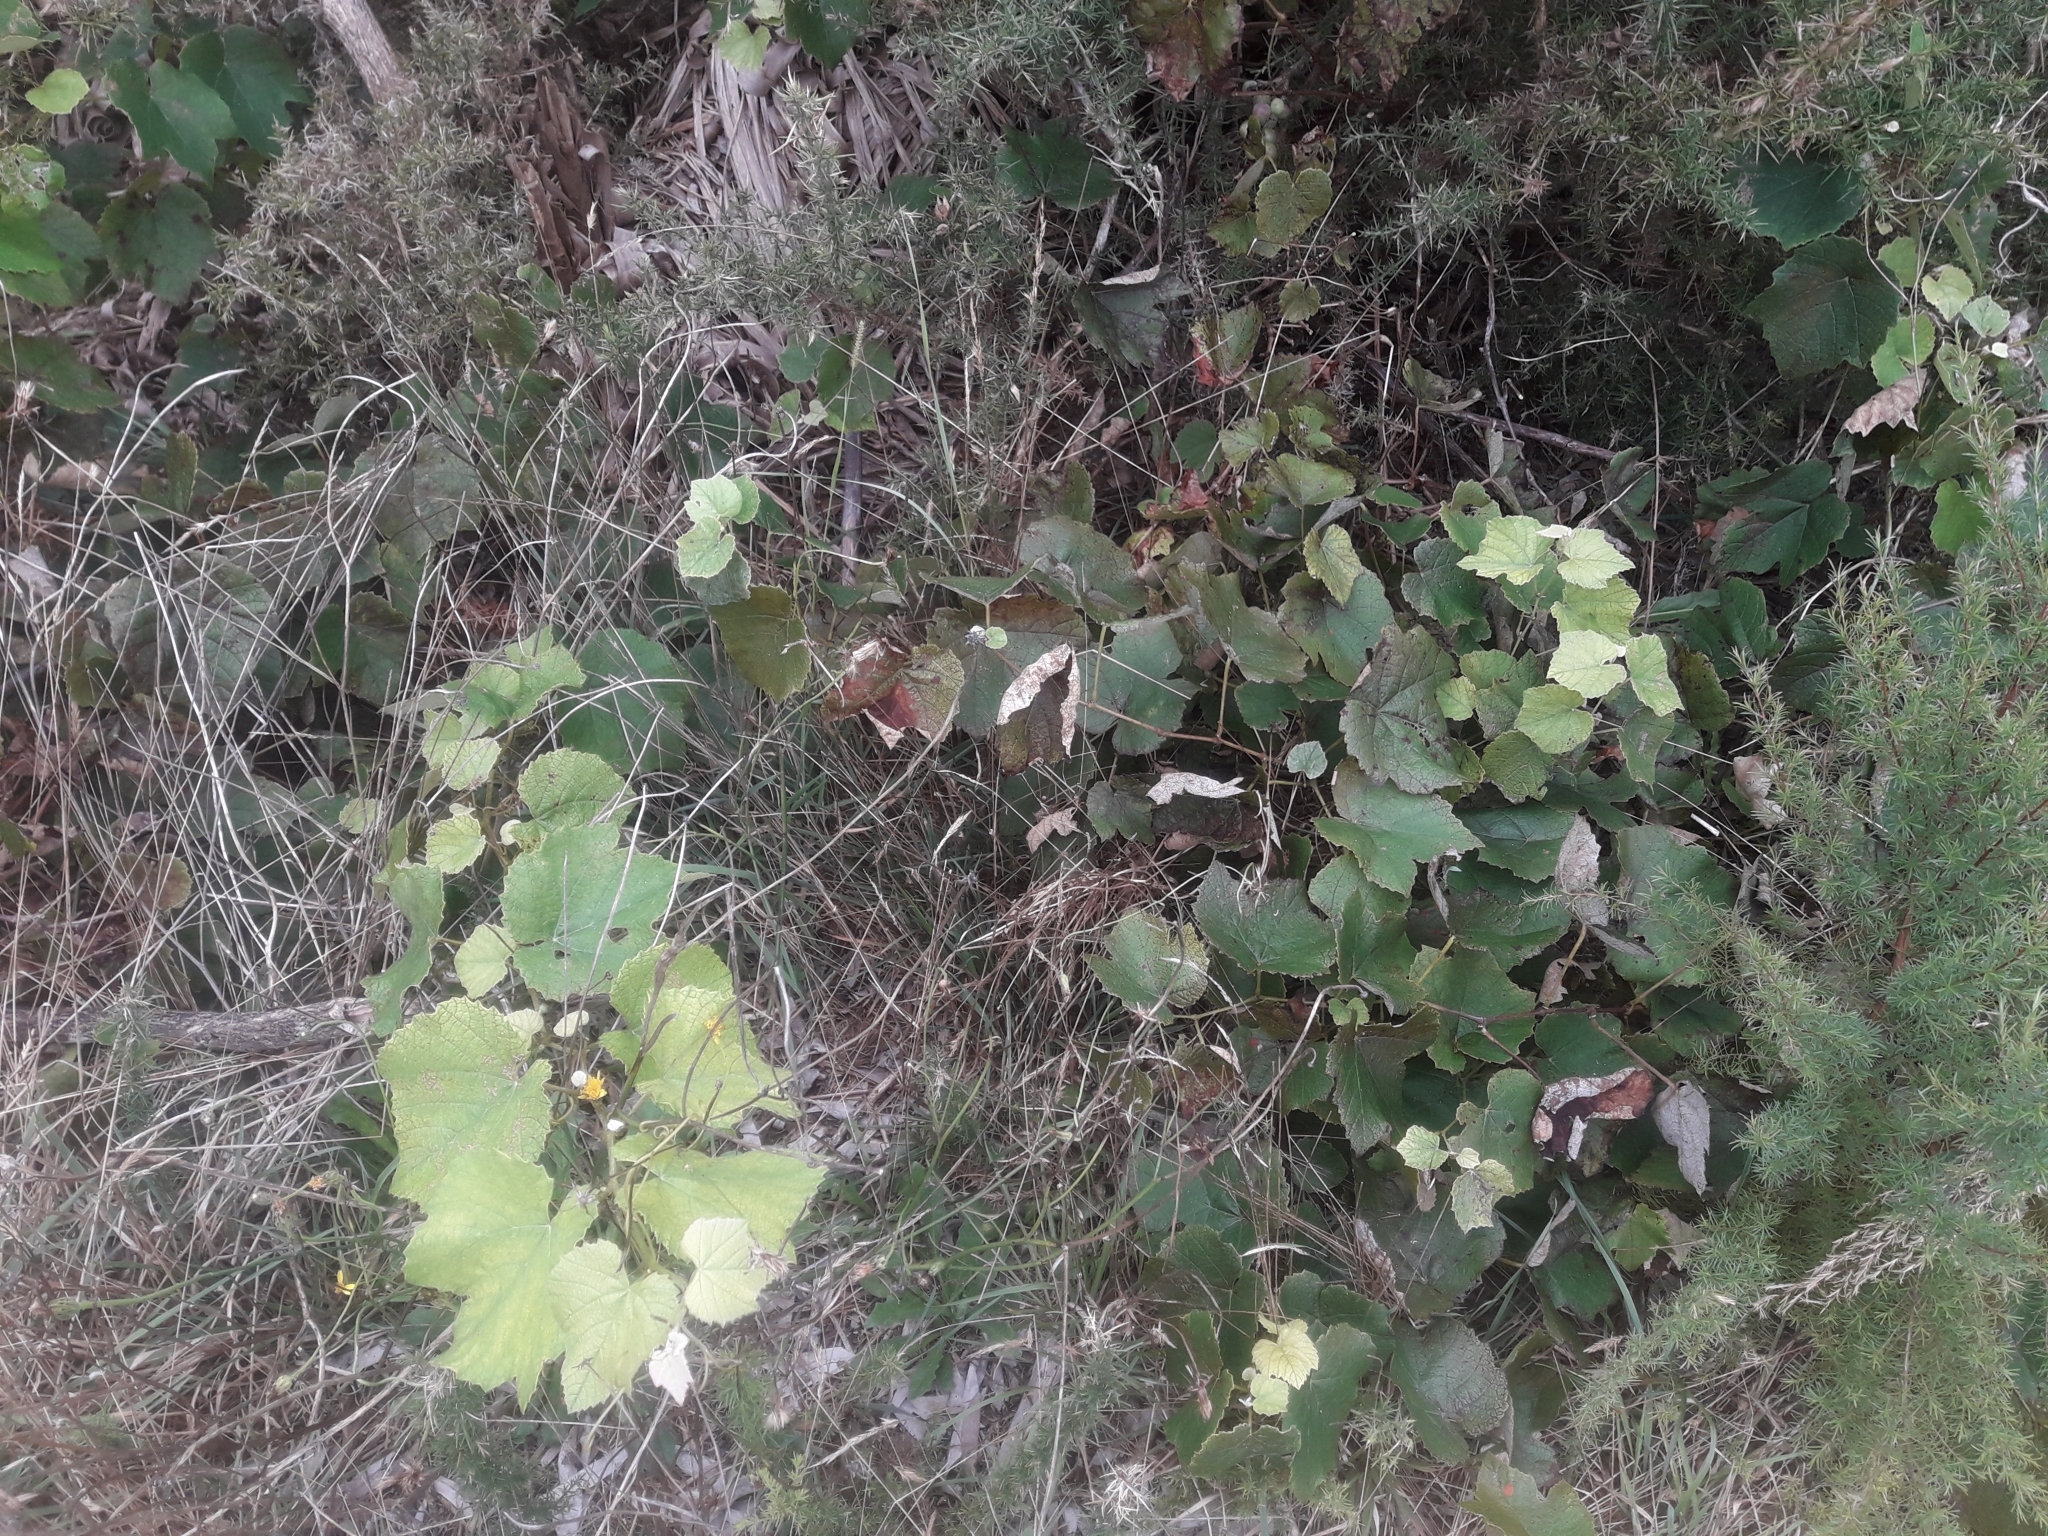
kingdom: Plantae
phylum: Tracheophyta
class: Magnoliopsida
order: Vitales
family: Vitaceae
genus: Vitis
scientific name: Vitis vinifera
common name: Grape-vine
